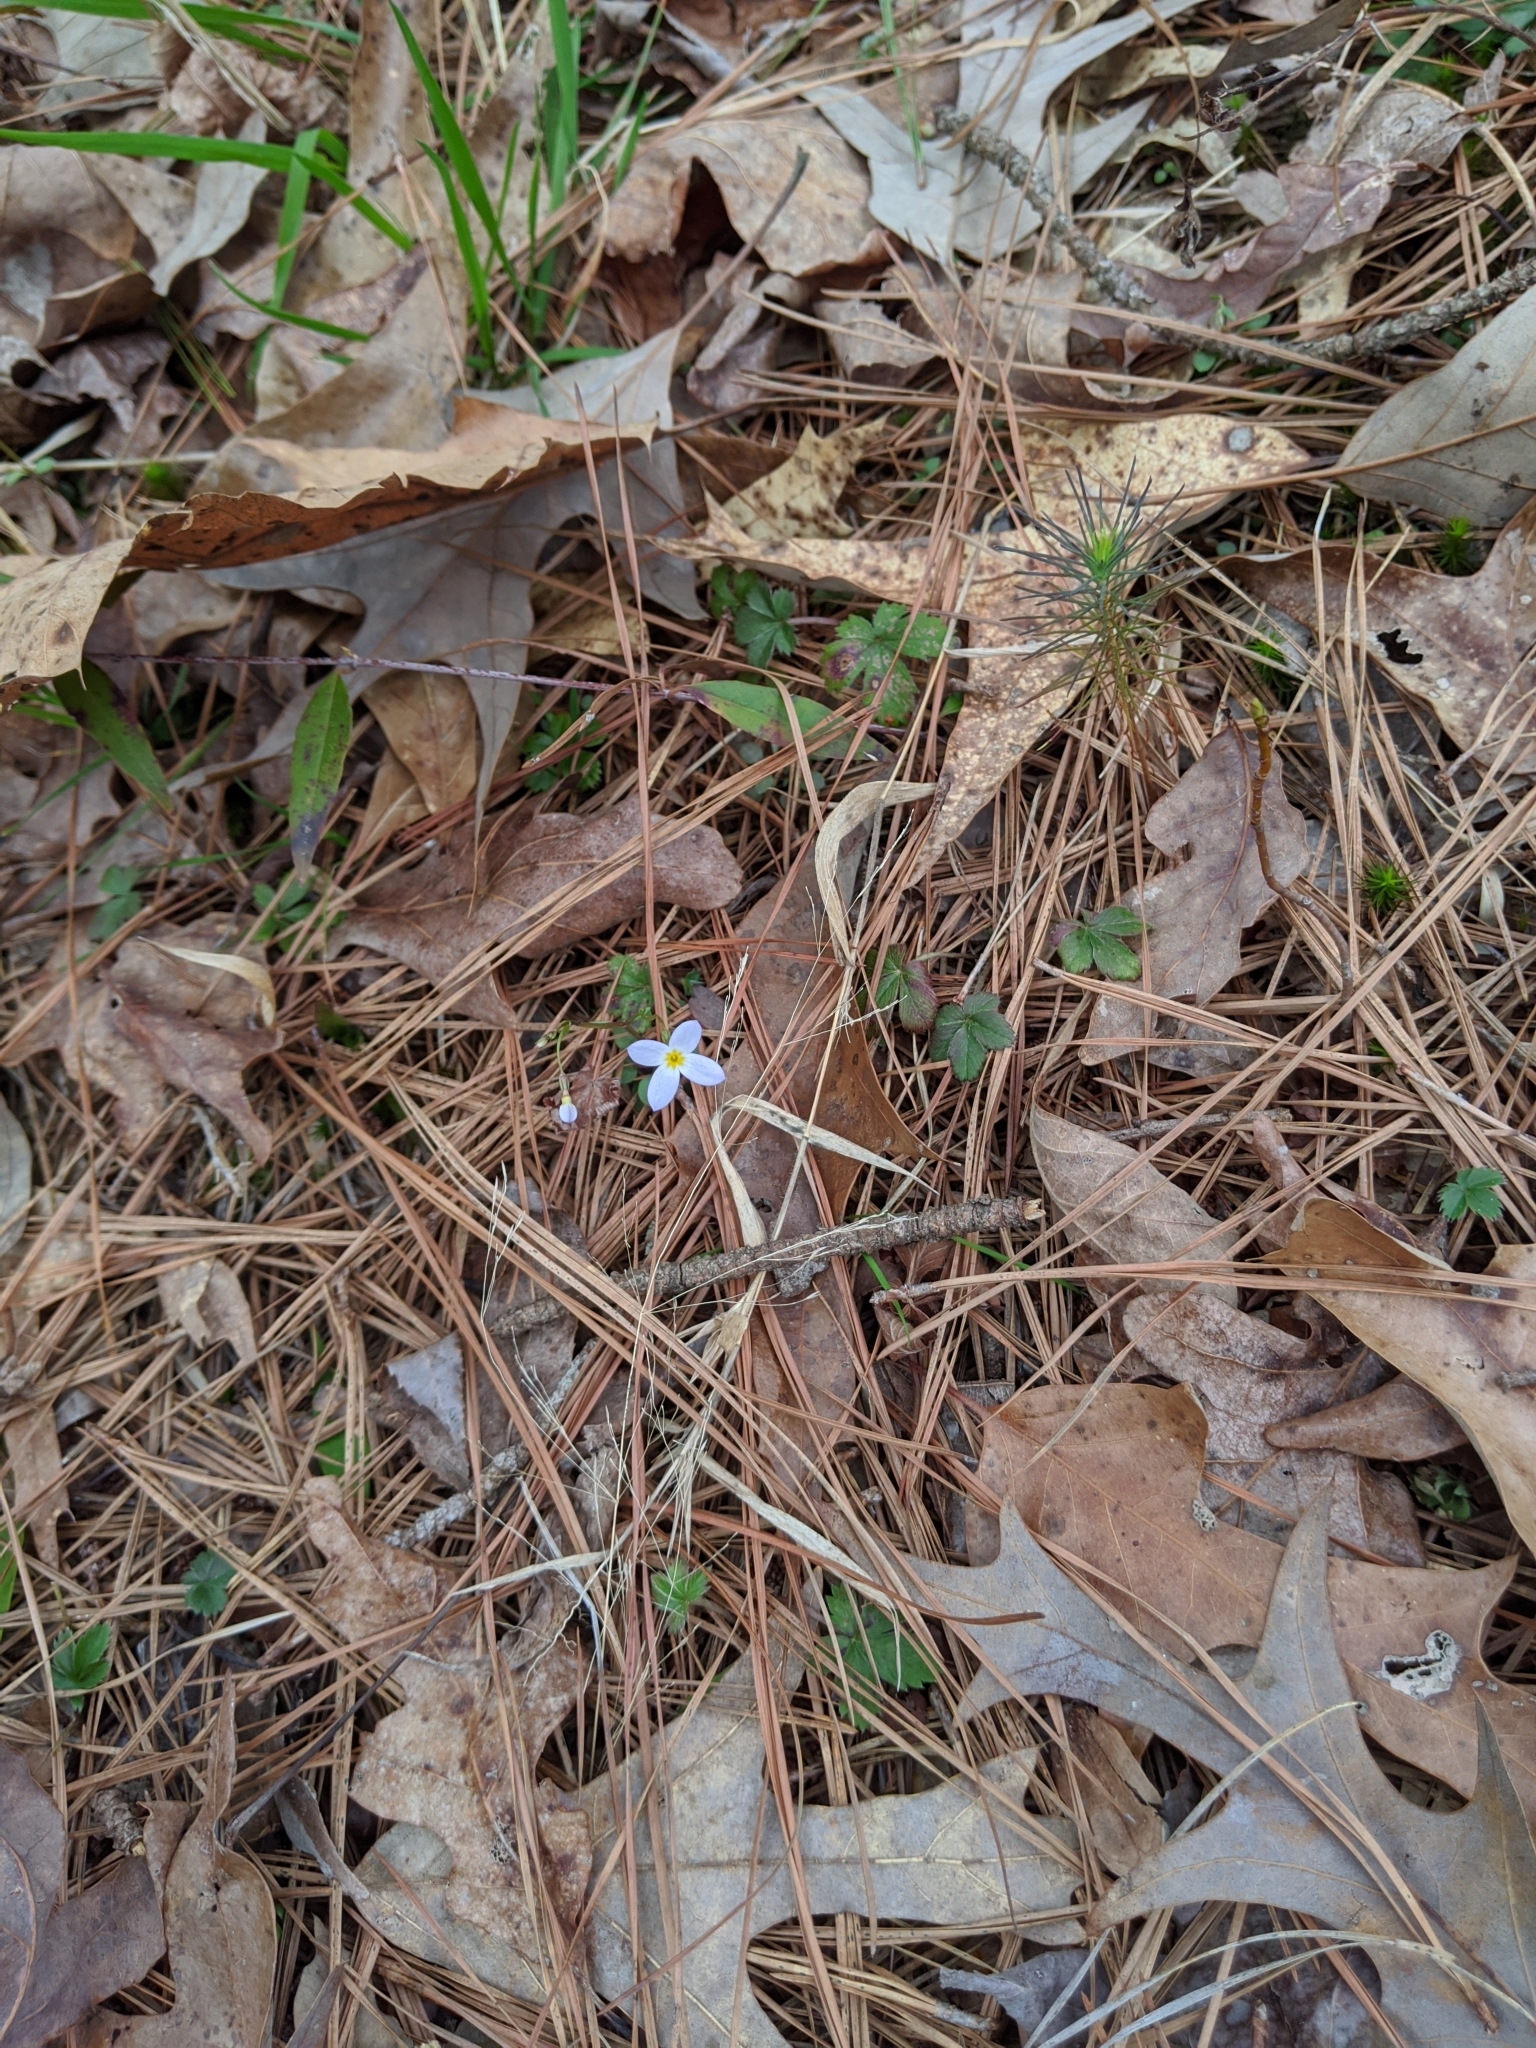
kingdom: Plantae
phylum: Tracheophyta
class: Magnoliopsida
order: Gentianales
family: Rubiaceae
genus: Houstonia
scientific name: Houstonia caerulea
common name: Bluets
